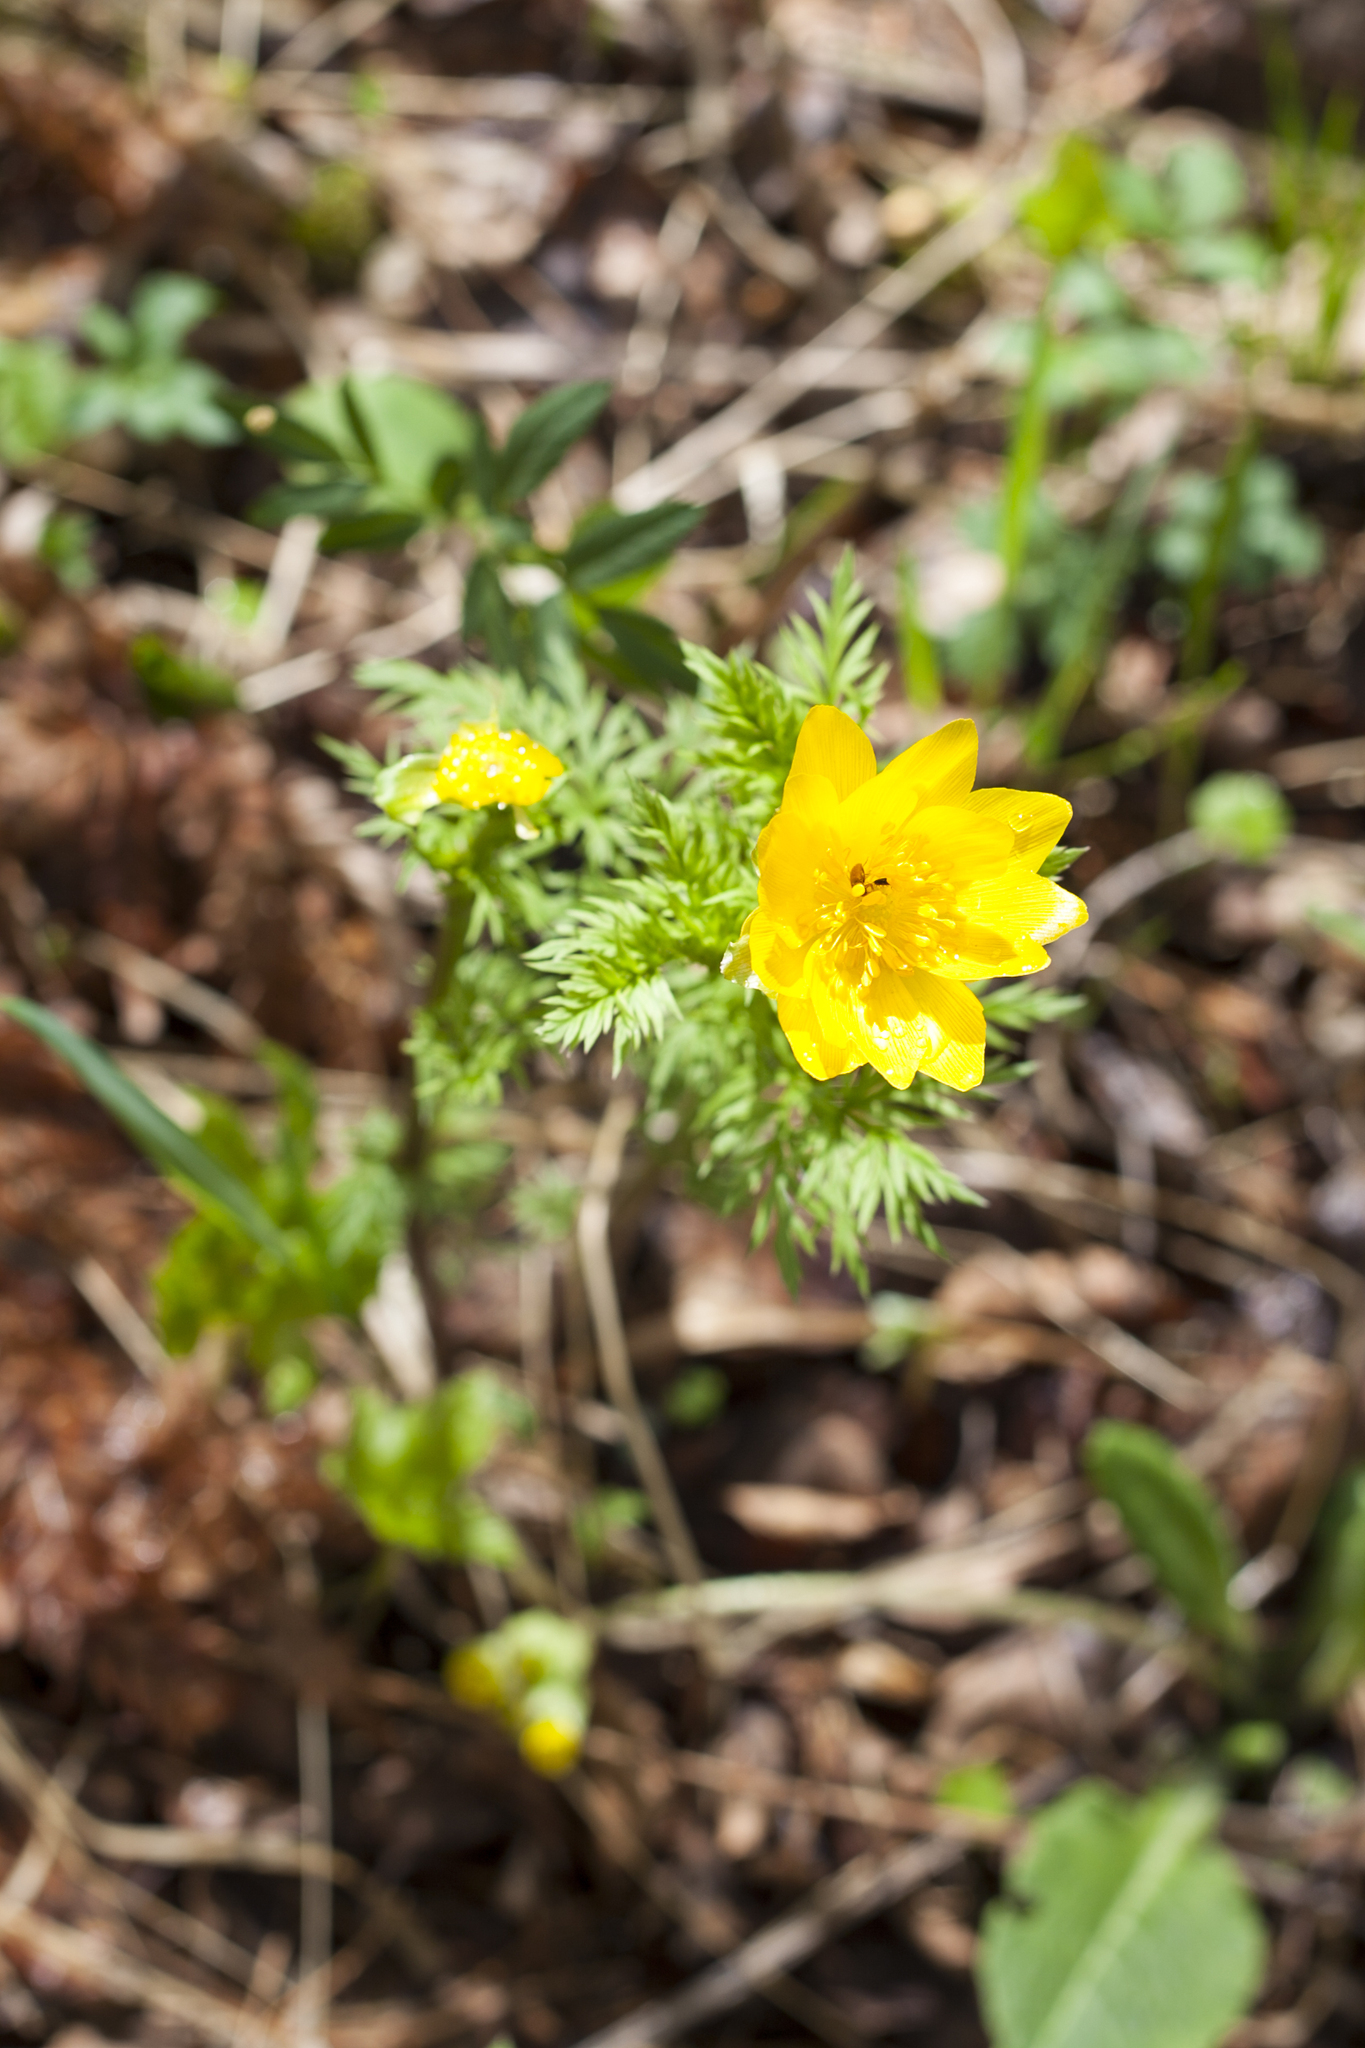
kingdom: Plantae
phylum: Tracheophyta
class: Magnoliopsida
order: Ranunculales
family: Ranunculaceae
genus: Adonis
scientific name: Adonis
